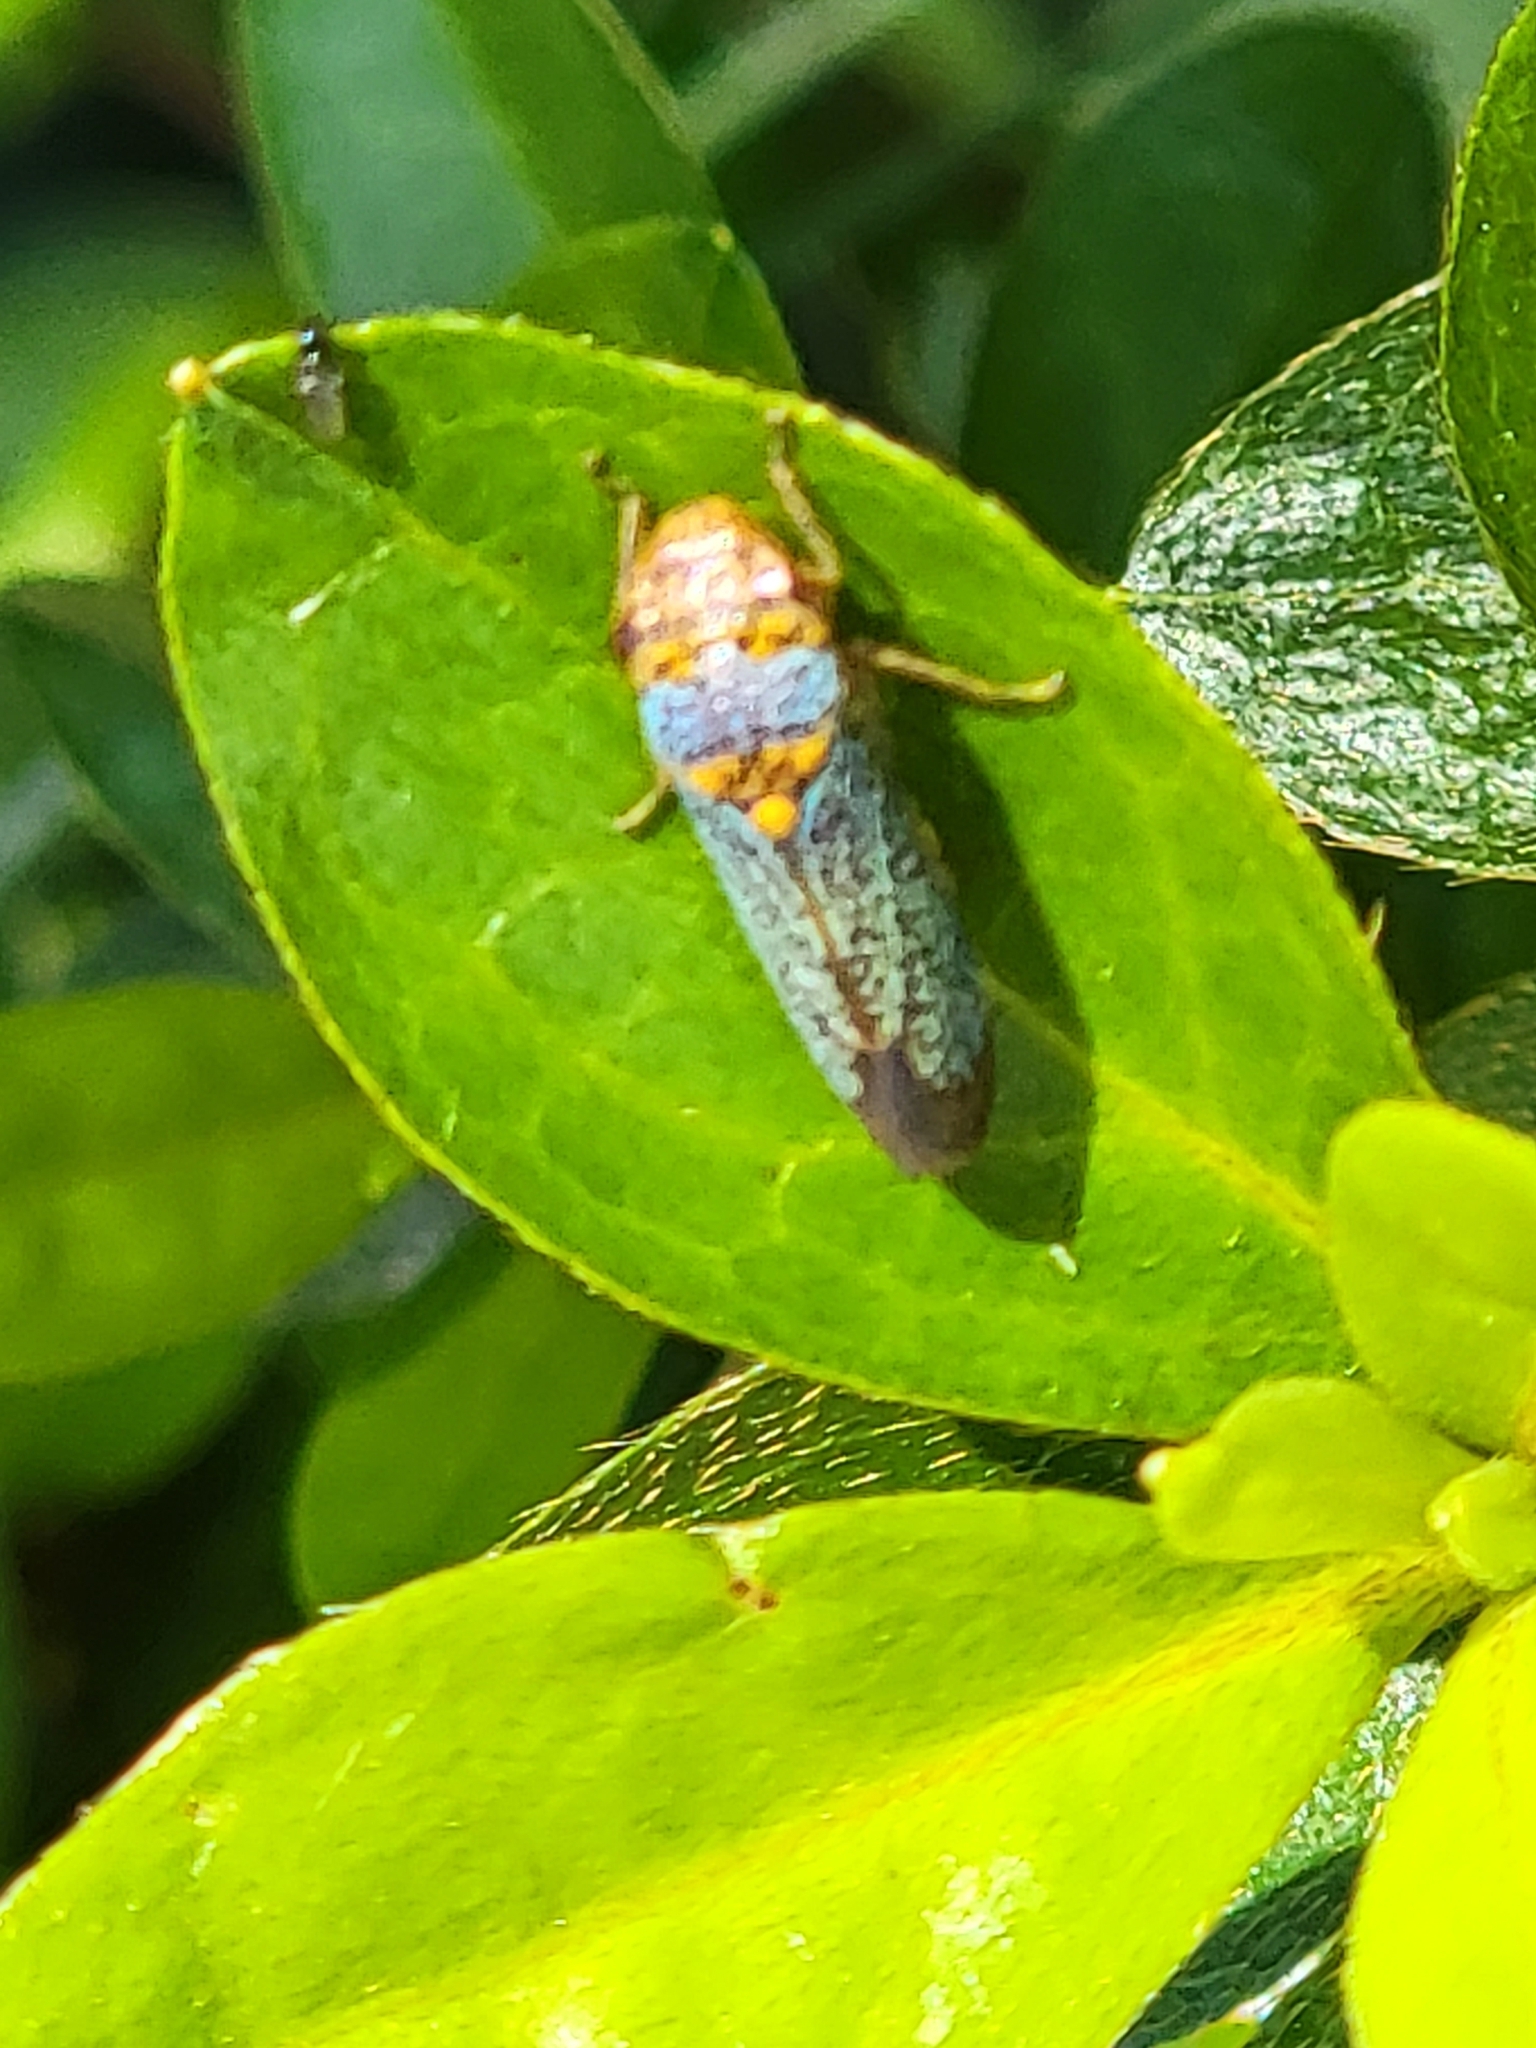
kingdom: Animalia
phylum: Arthropoda
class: Insecta
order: Hemiptera
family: Cicadellidae
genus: Oncometopia
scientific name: Oncometopia orbona
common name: Broad-headed sharpshooter
